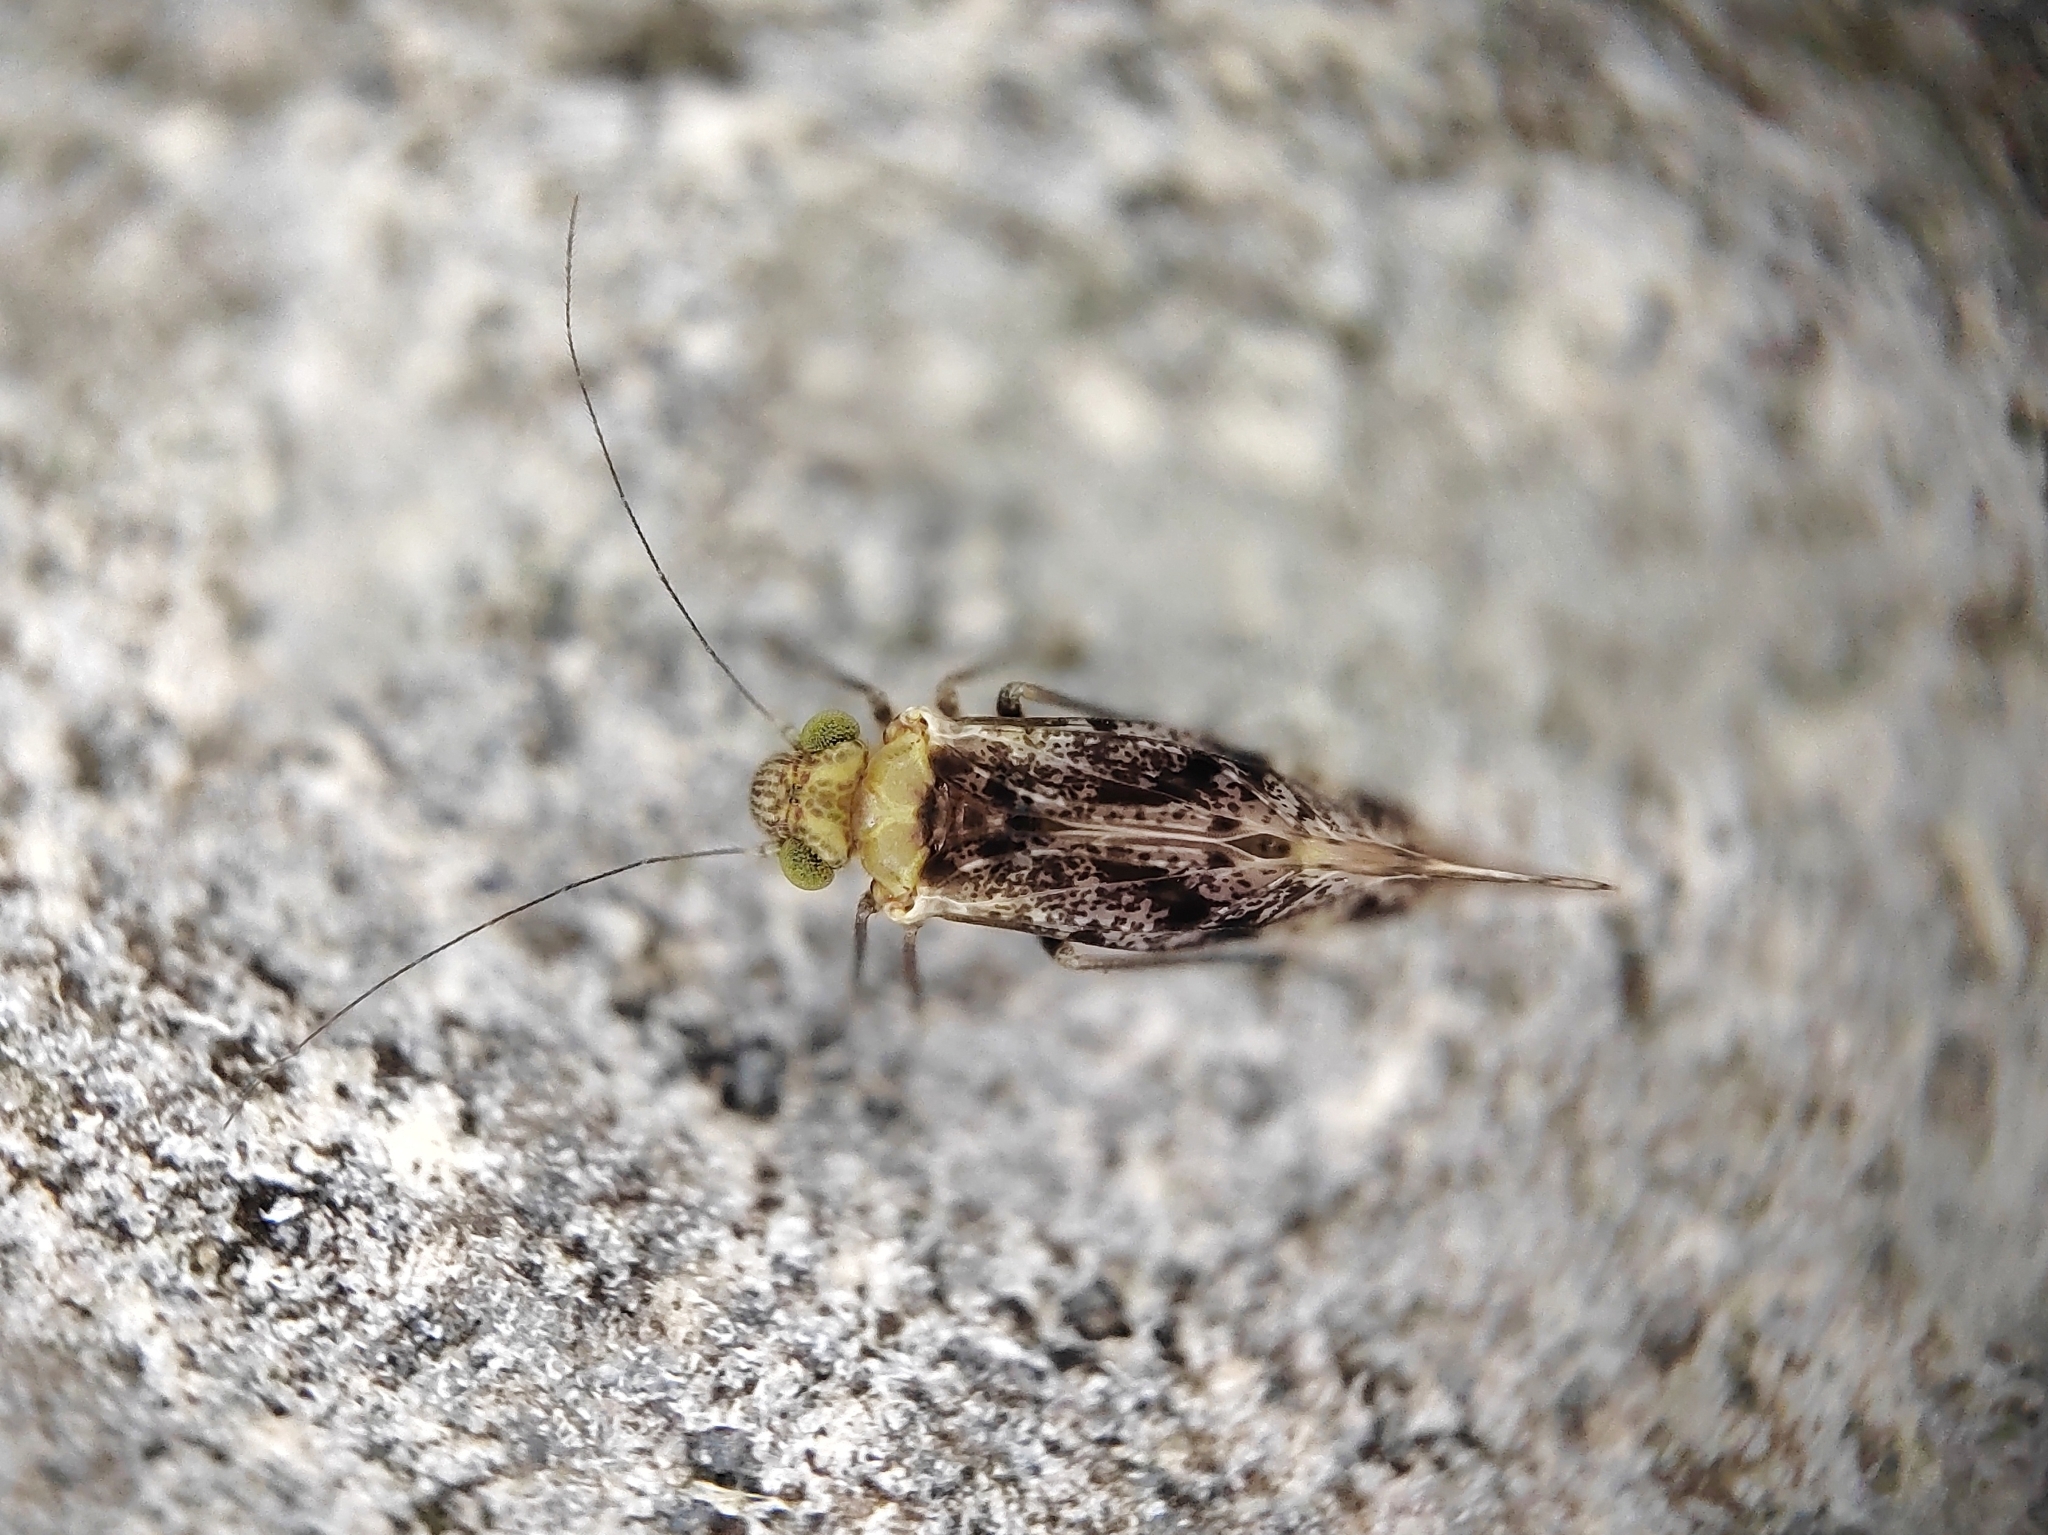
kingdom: Animalia
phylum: Arthropoda
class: Insecta
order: Psocodea
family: Psocidae
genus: Trichadenotecnum
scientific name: Trichadenotecnum
